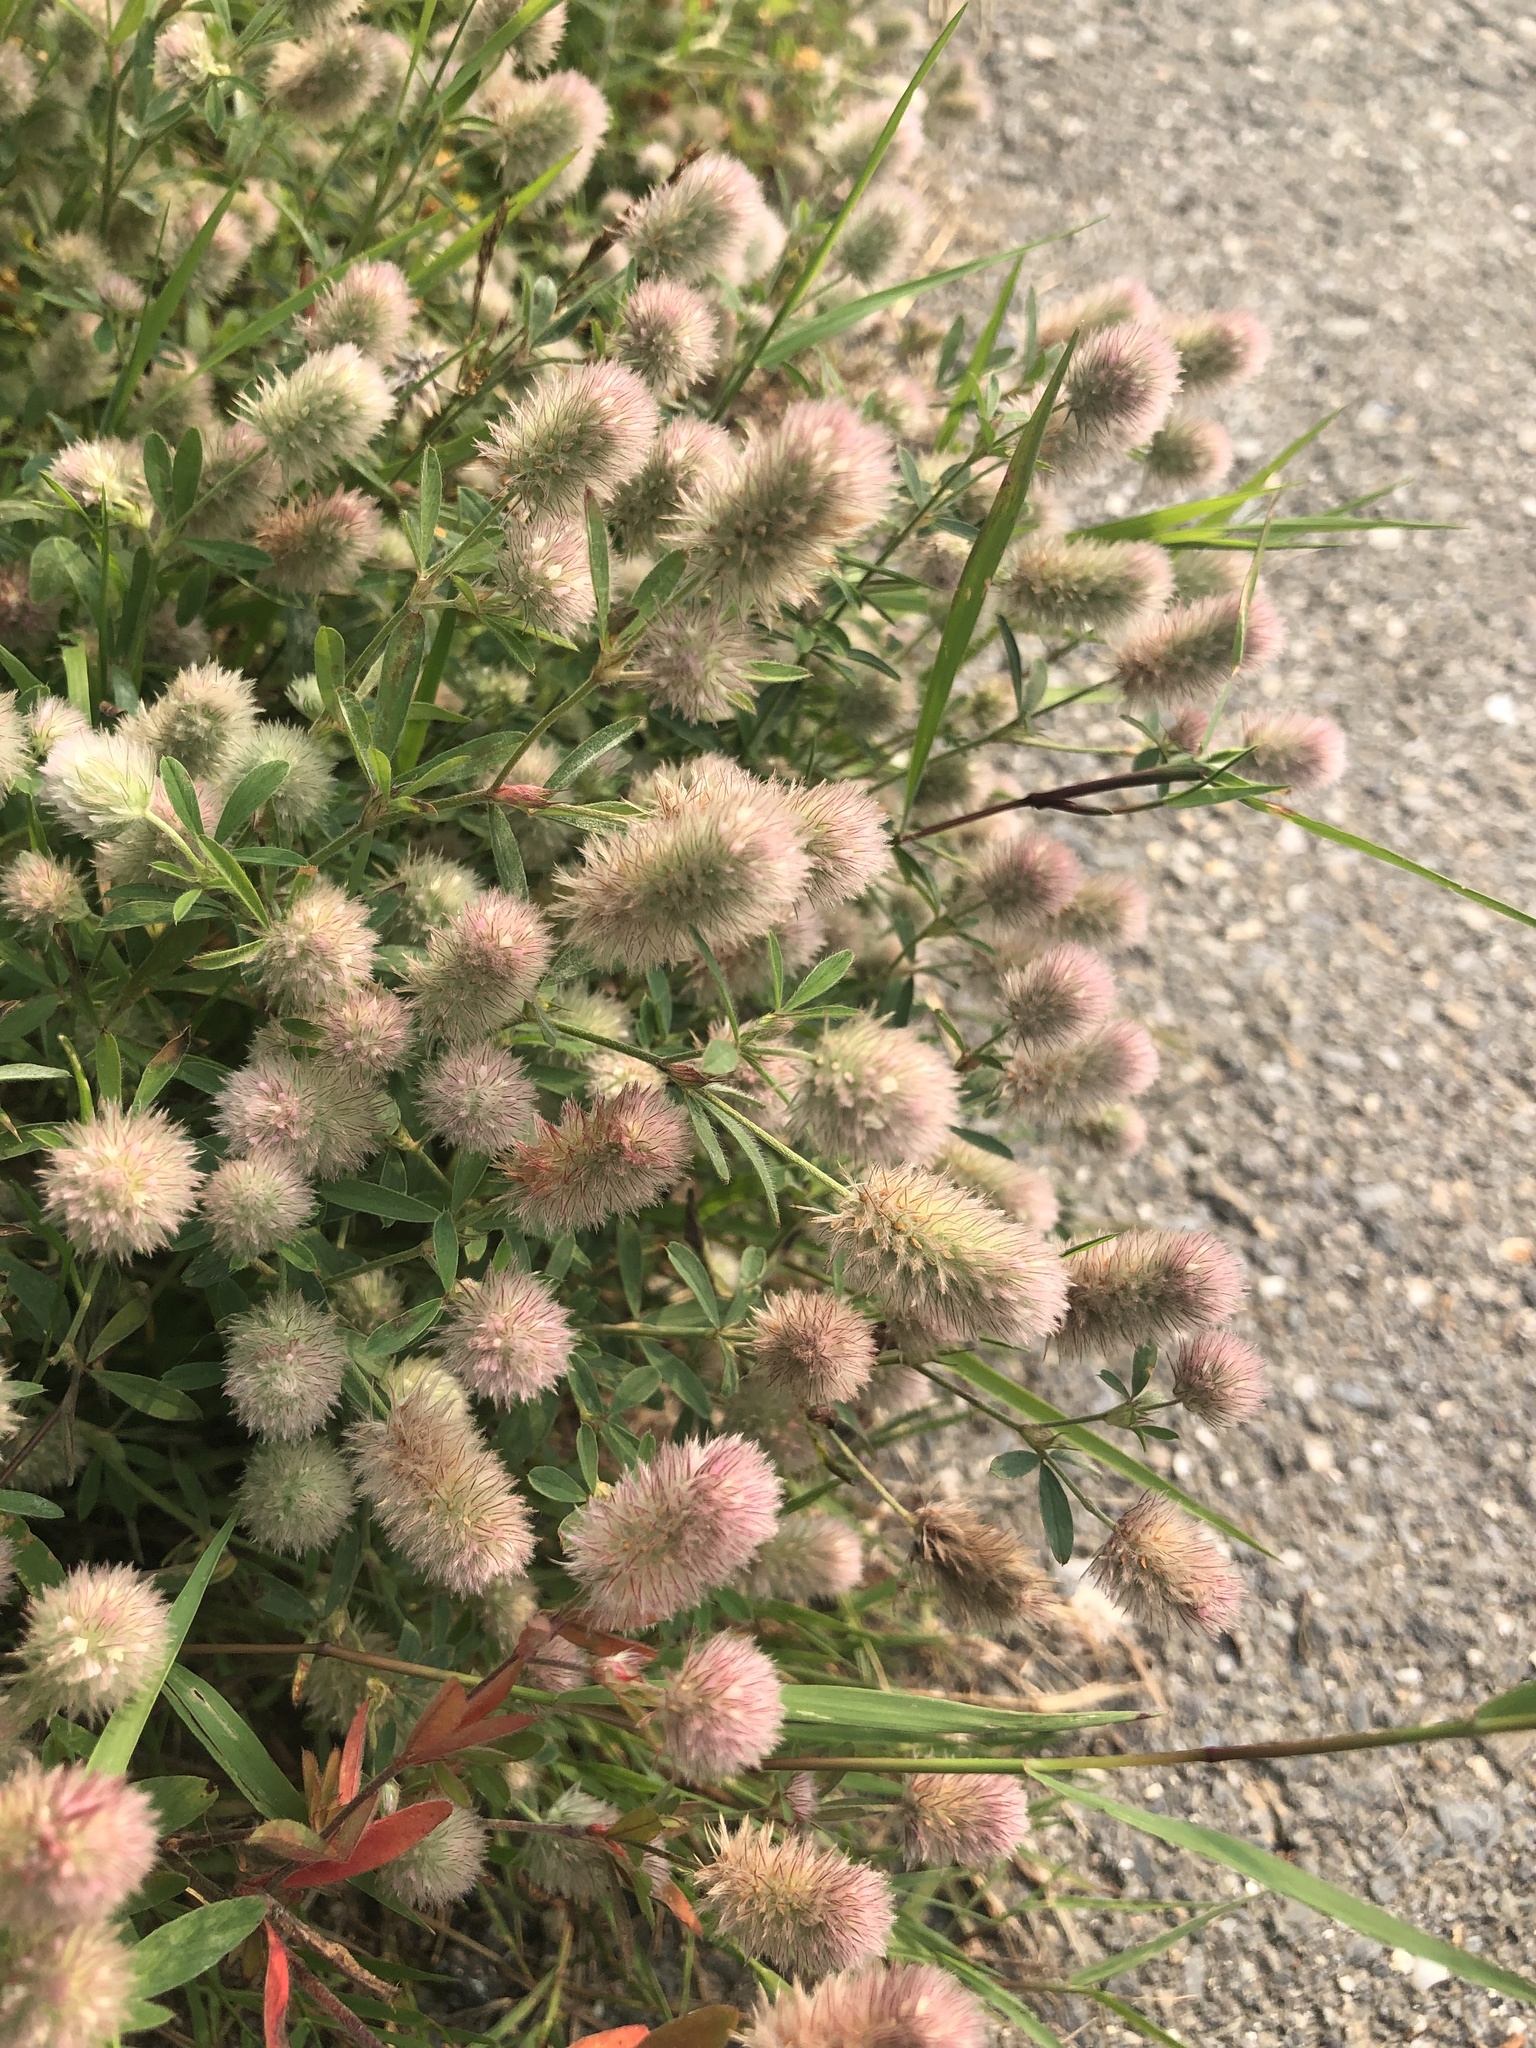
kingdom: Plantae
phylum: Tracheophyta
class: Magnoliopsida
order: Fabales
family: Fabaceae
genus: Trifolium
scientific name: Trifolium arvense
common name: Hare's-foot clover
